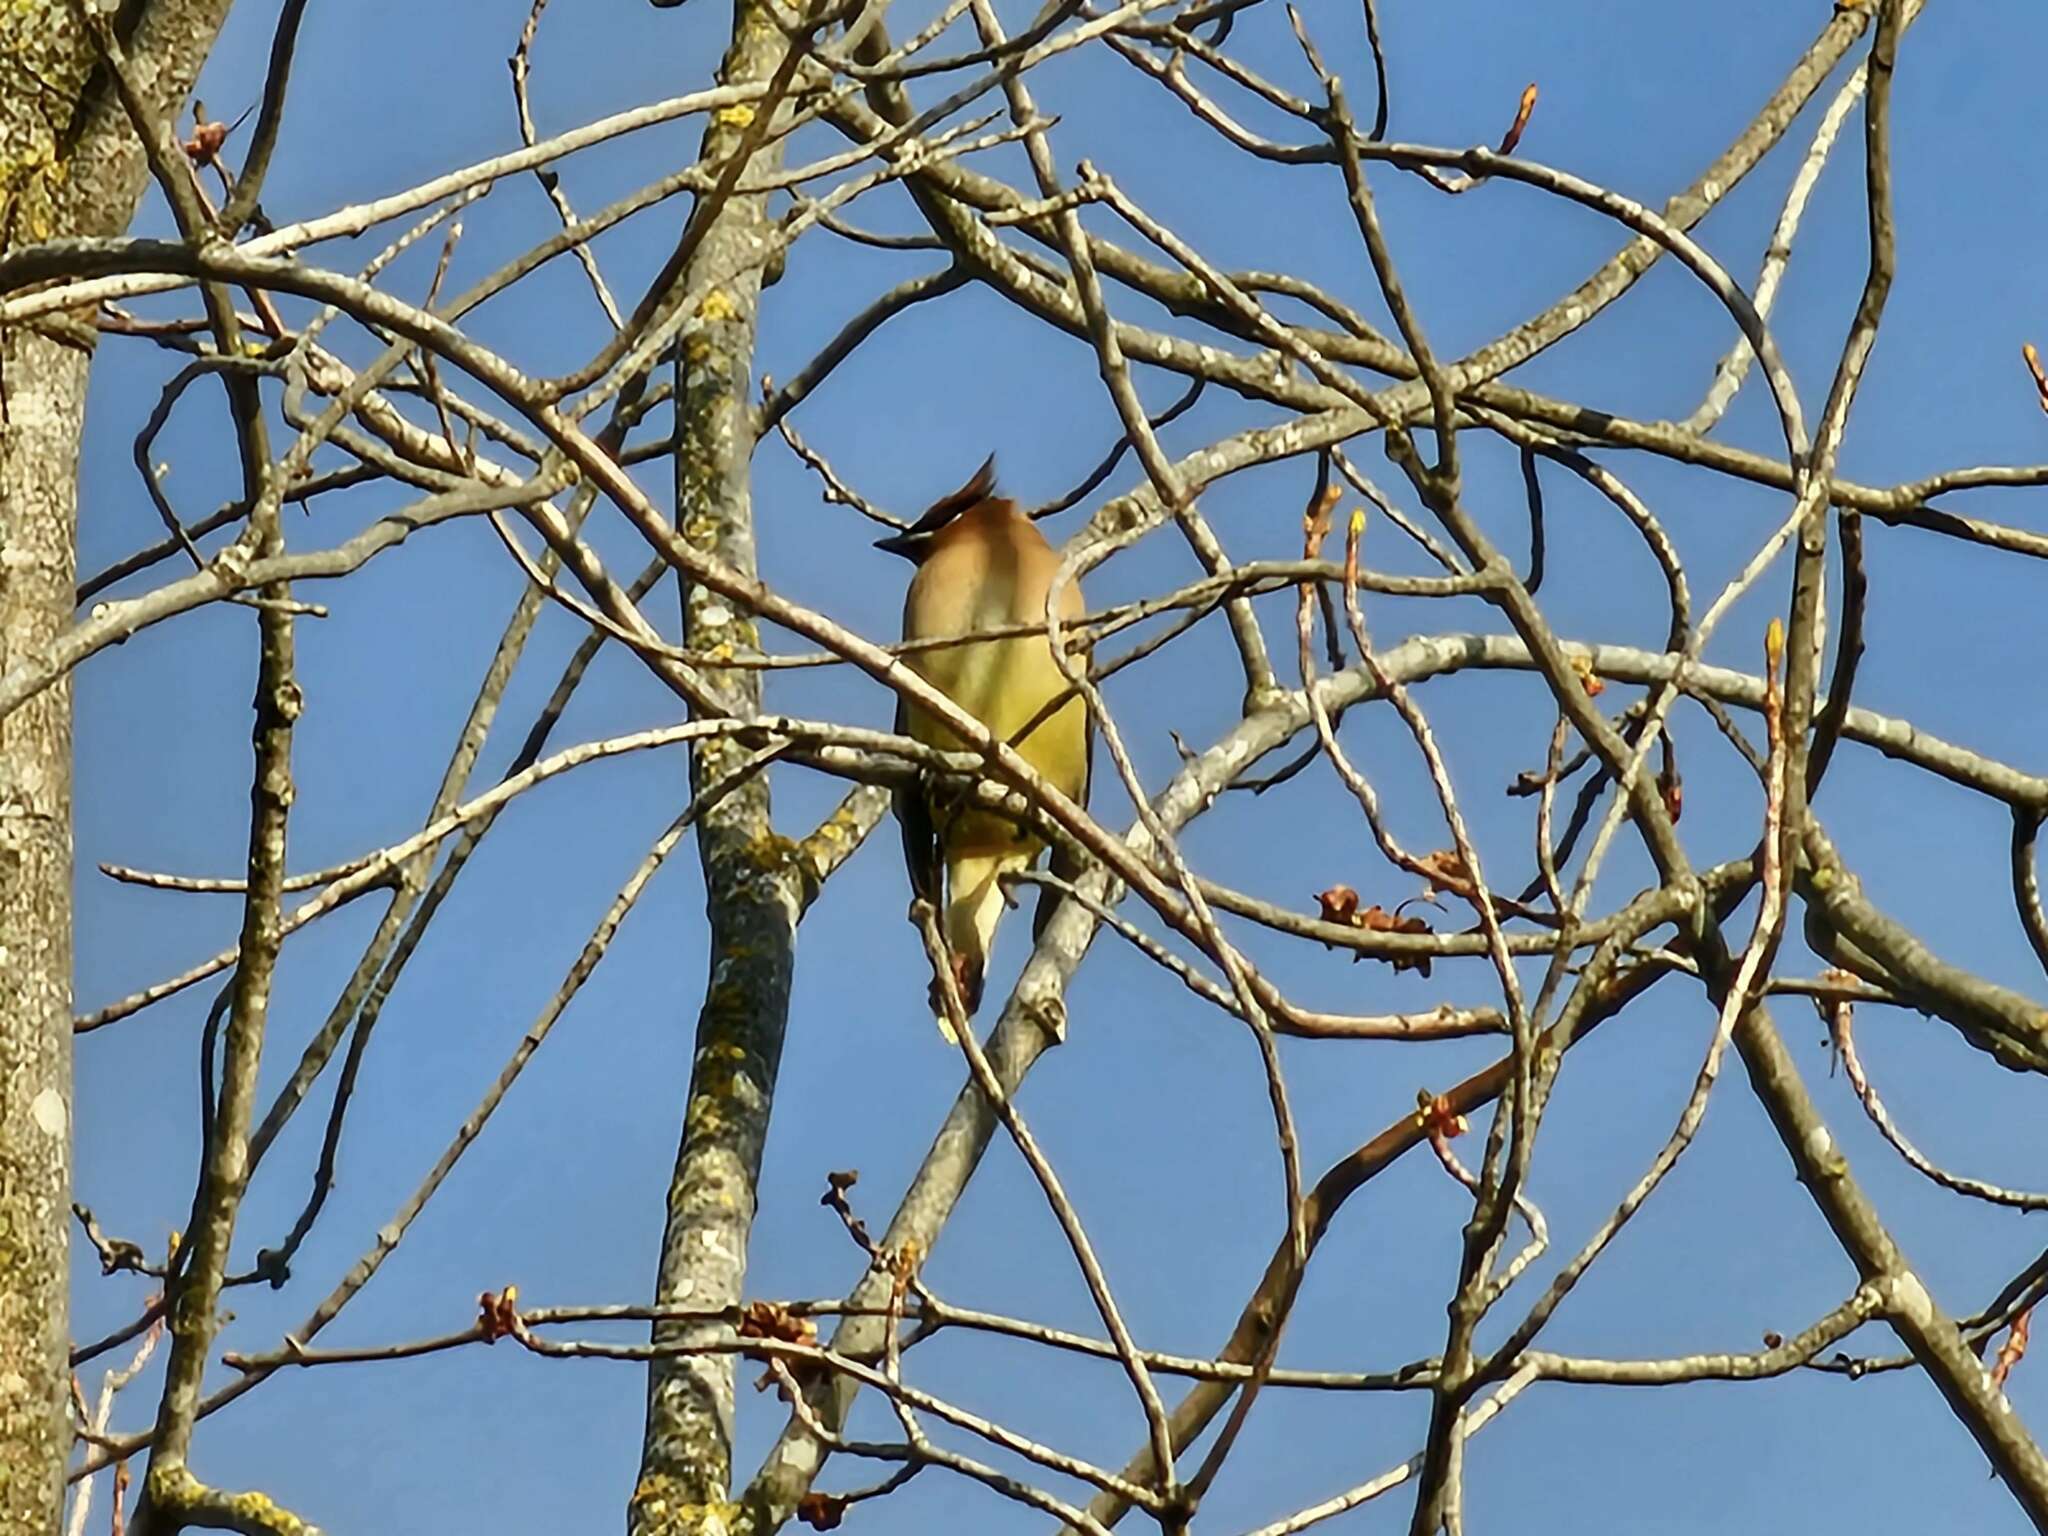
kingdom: Animalia
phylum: Chordata
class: Aves
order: Passeriformes
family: Bombycillidae
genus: Bombycilla
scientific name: Bombycilla cedrorum
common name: Cedar waxwing
